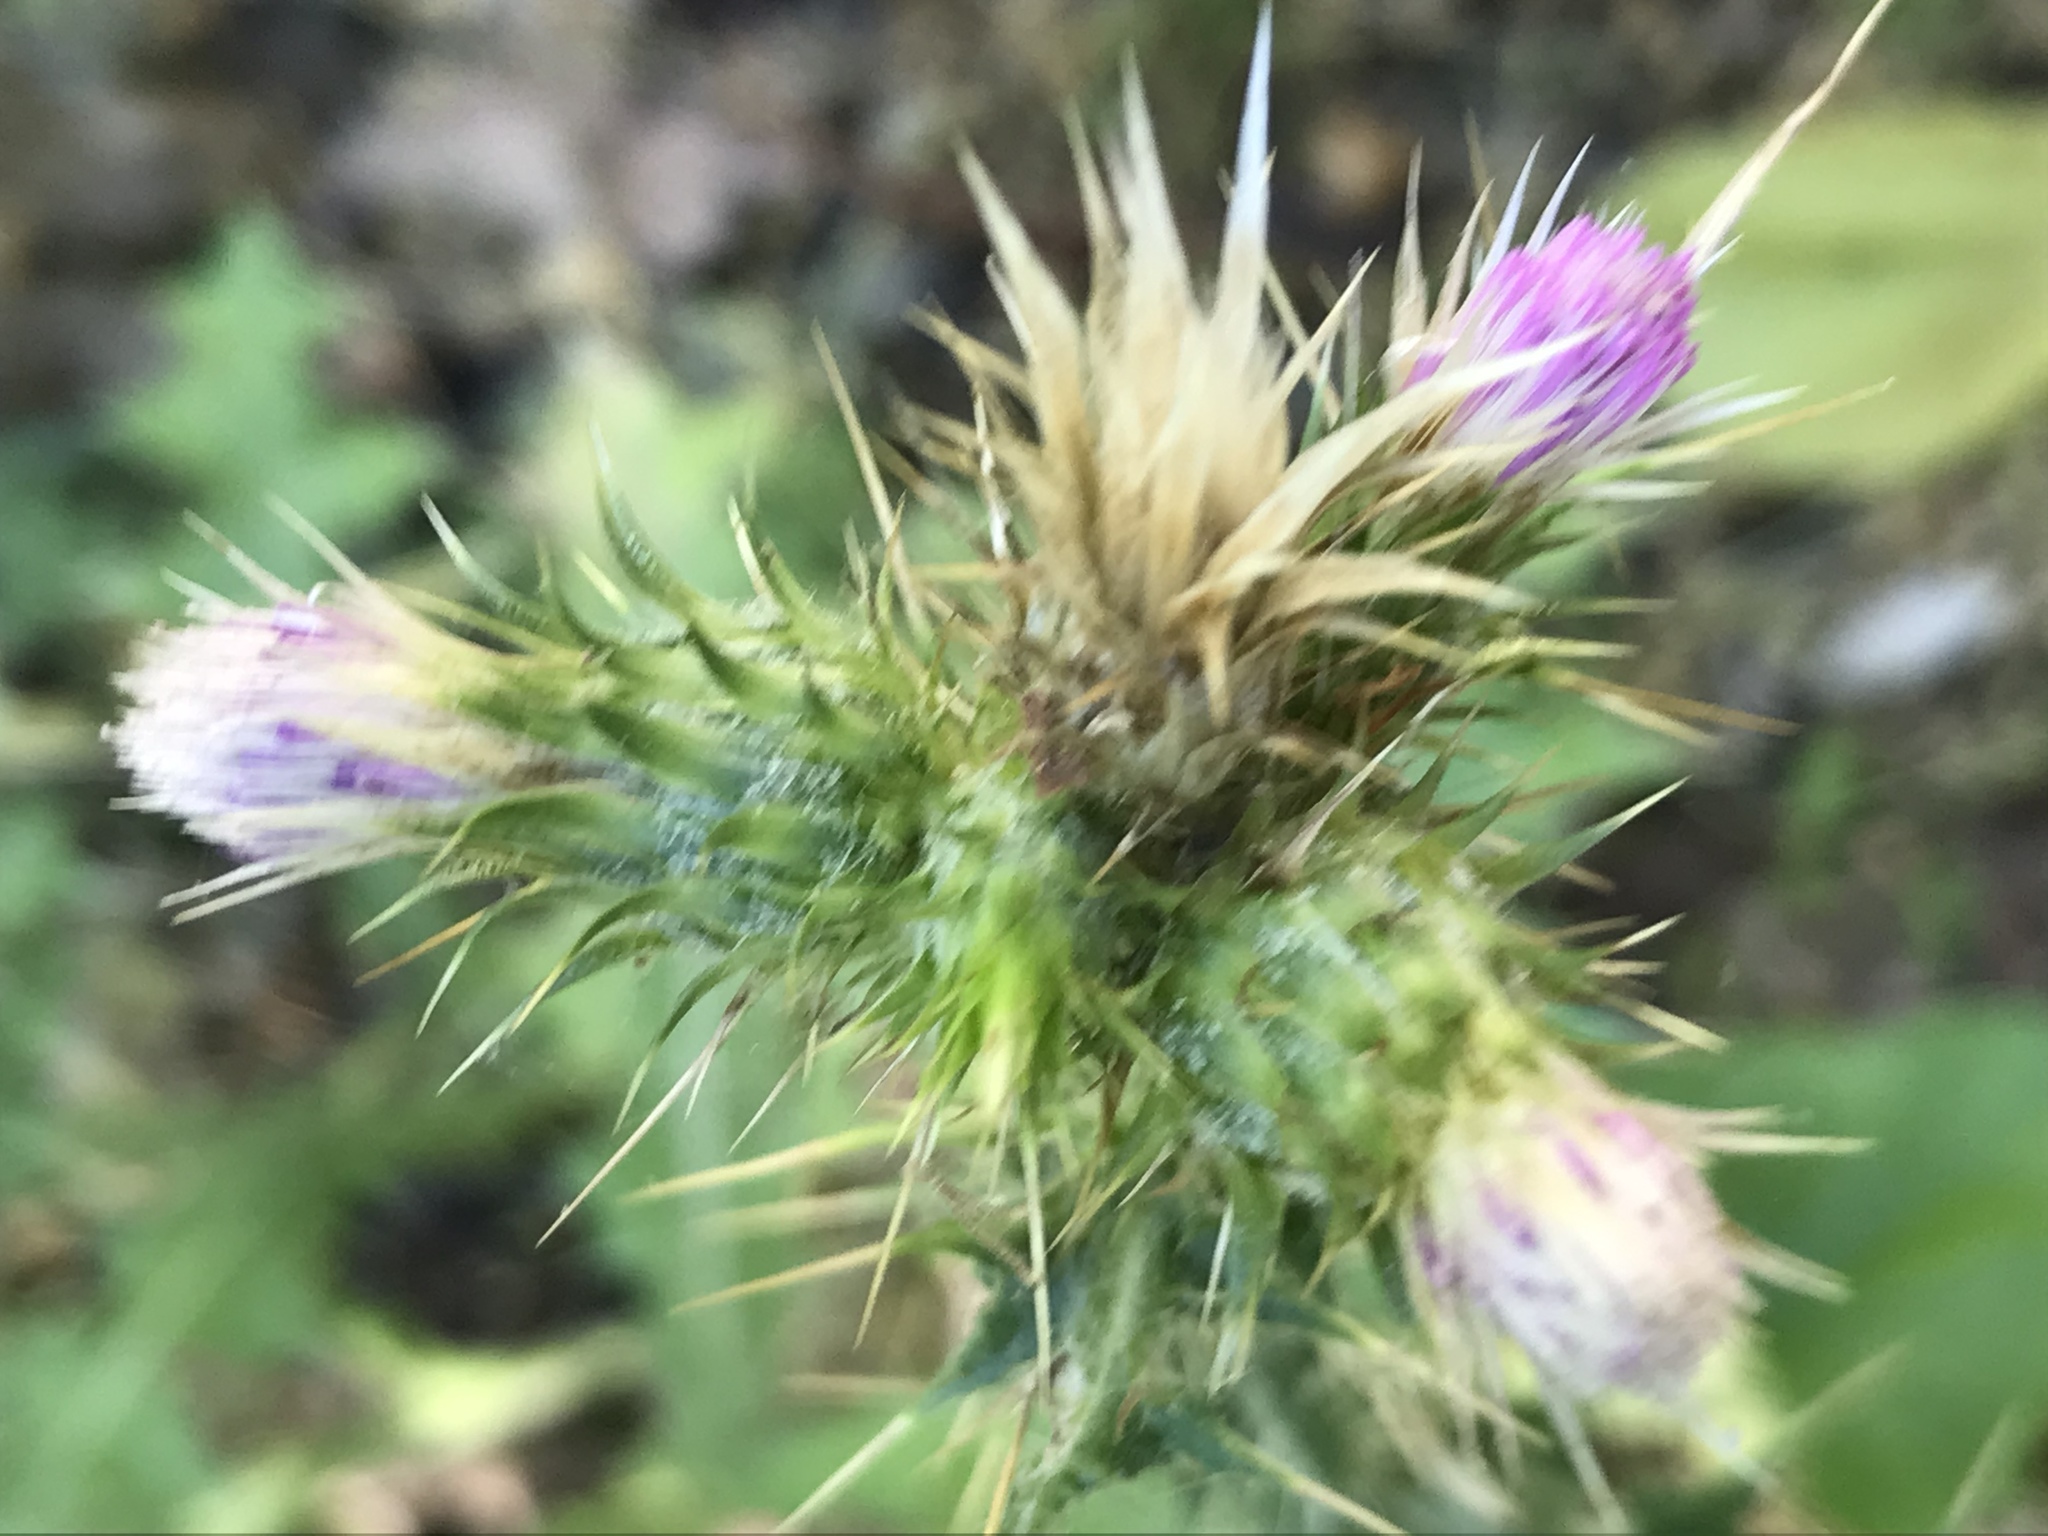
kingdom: Plantae
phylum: Tracheophyta
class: Magnoliopsida
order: Asterales
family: Asteraceae
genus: Carduus
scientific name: Carduus tenuiflorus
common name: Slender thistle
